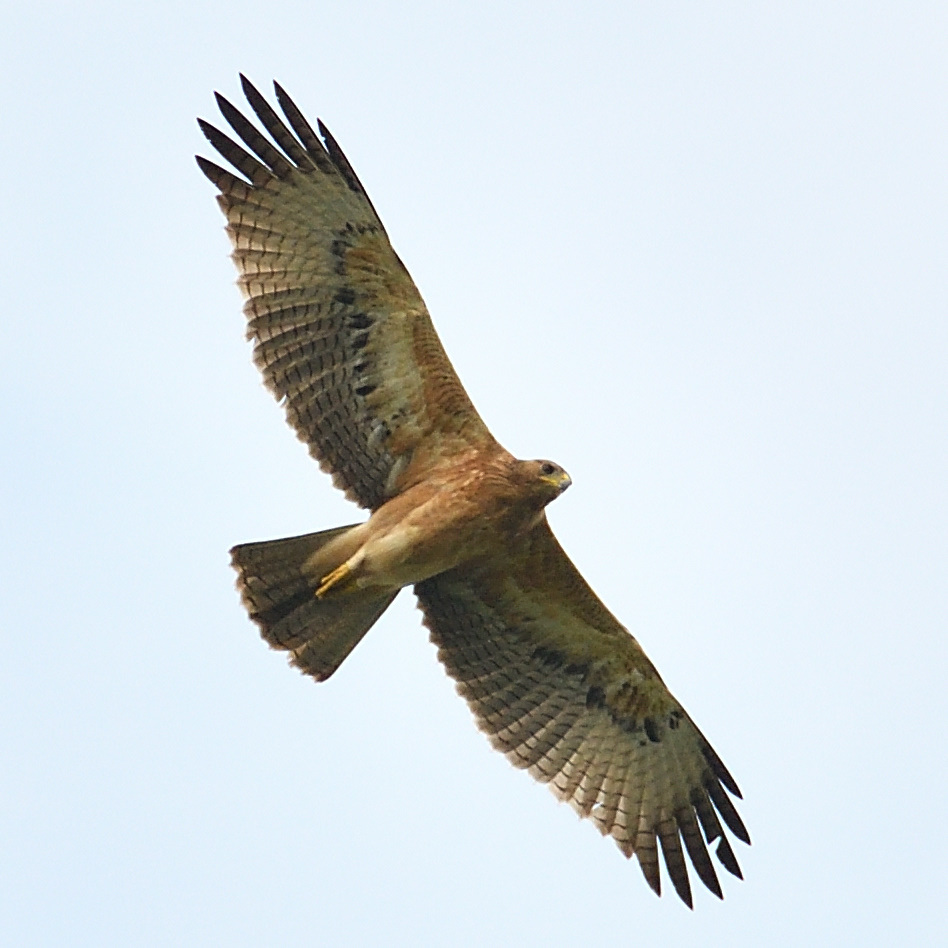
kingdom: Animalia
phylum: Chordata
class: Aves
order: Accipitriformes
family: Accipitridae
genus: Aquila
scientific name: Aquila fasciata
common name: Bonelli's eagle
